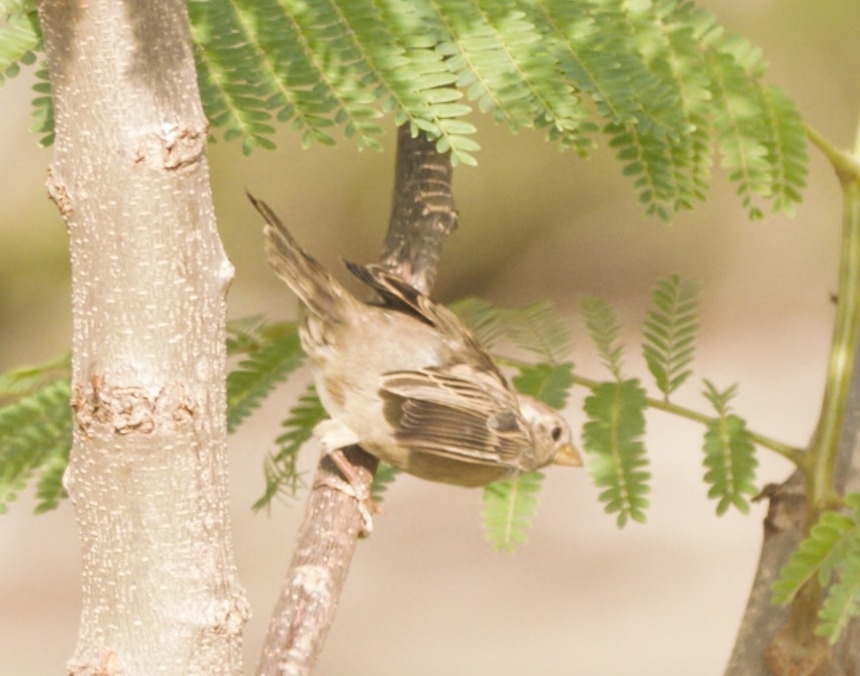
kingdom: Animalia
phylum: Chordata
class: Aves
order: Passeriformes
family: Passeridae
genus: Passer
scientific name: Passer domesticus
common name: House sparrow
